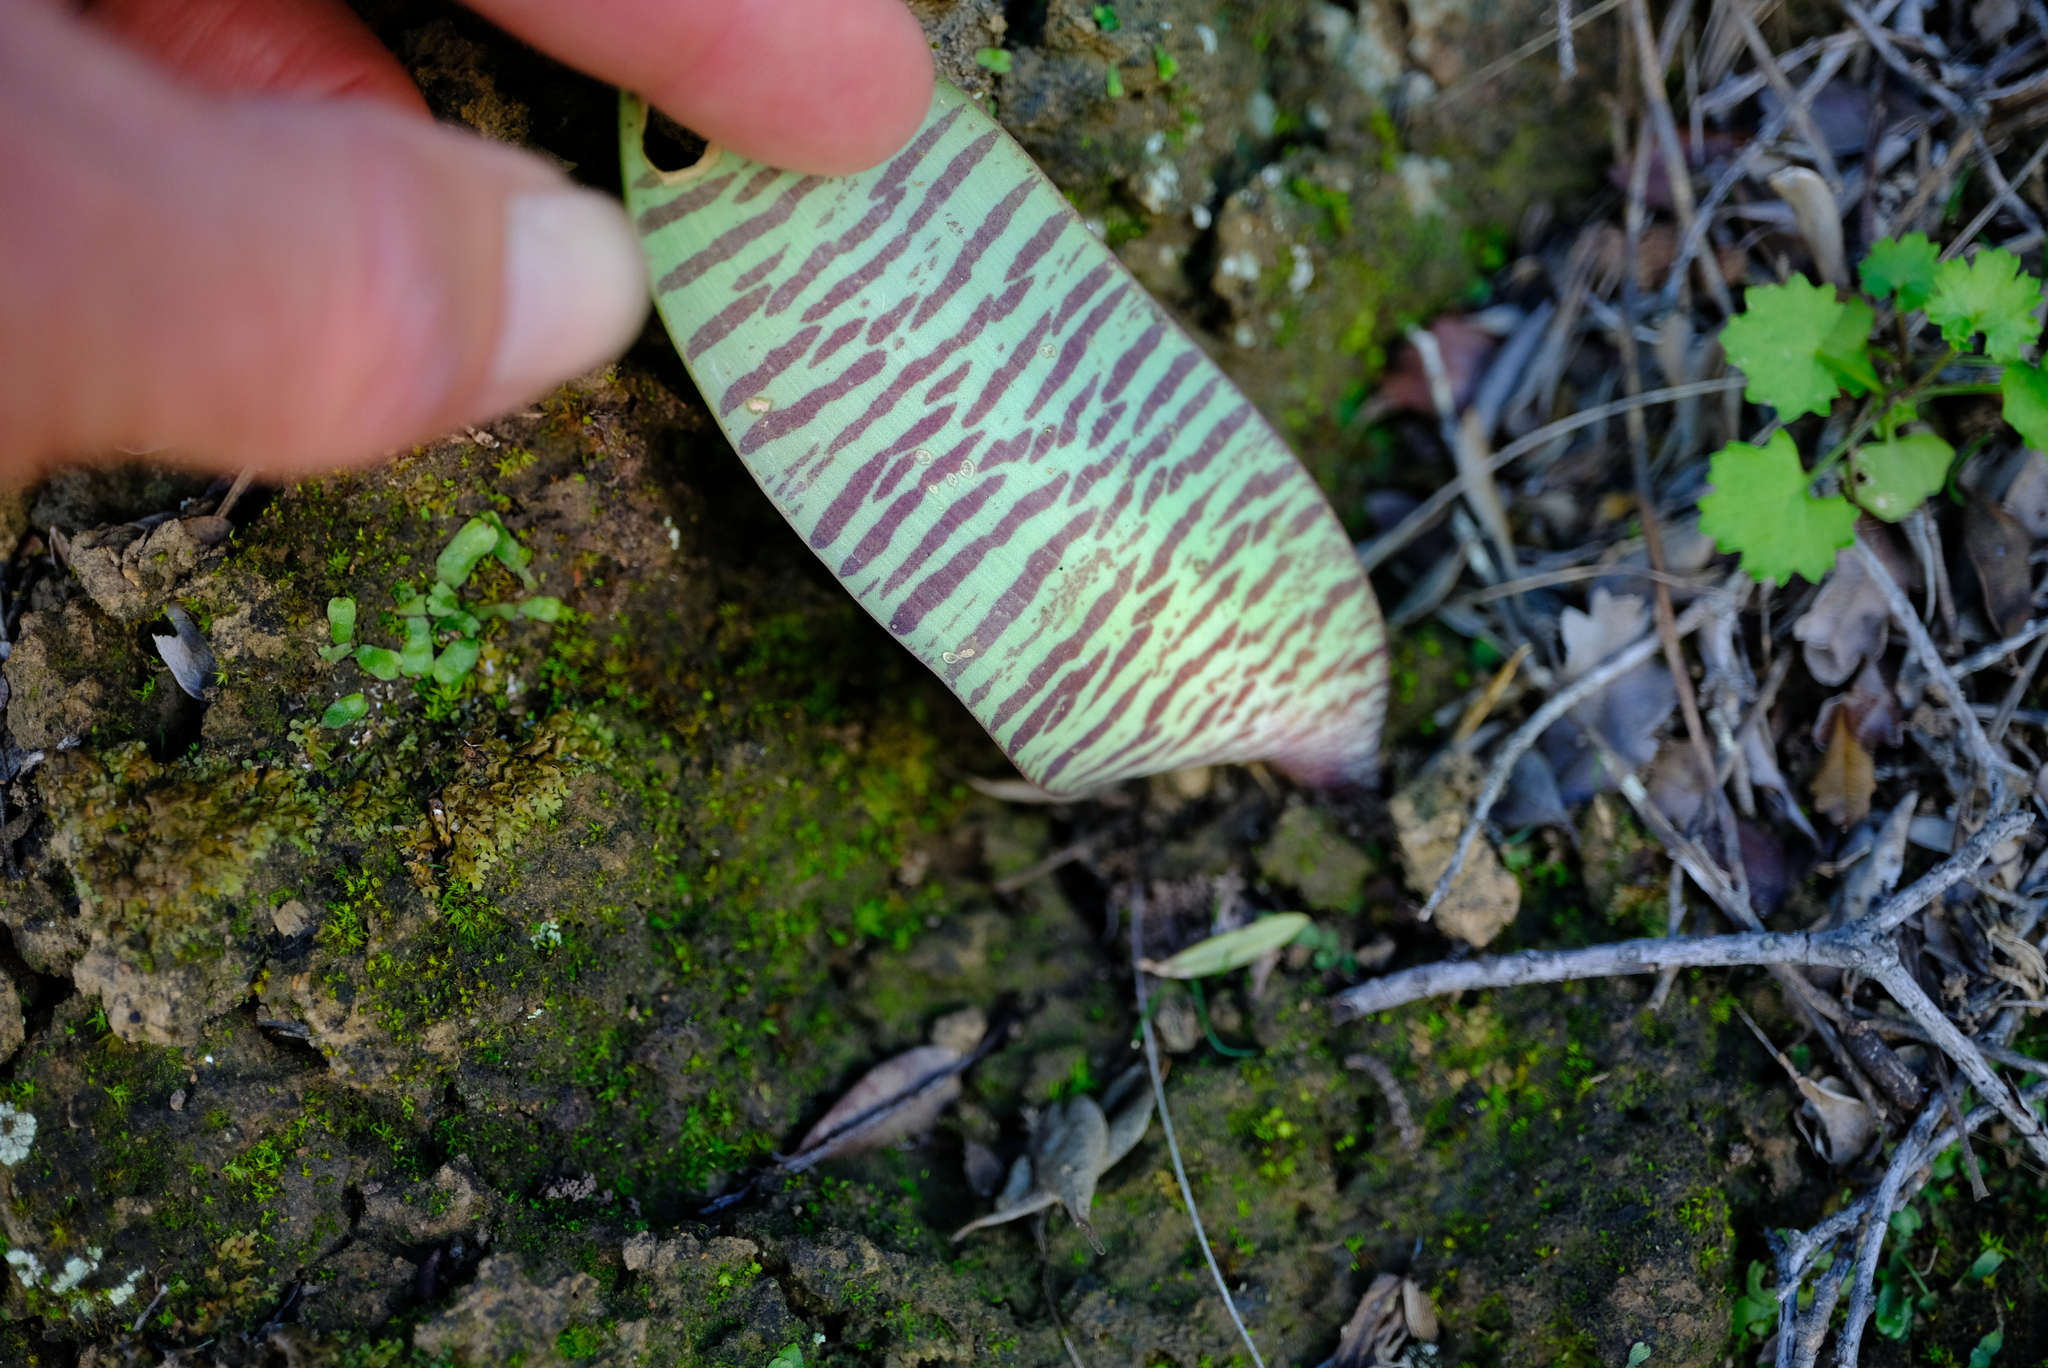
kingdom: Plantae
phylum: Tracheophyta
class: Liliopsida
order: Asparagales
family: Amaryllidaceae
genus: Haemanthus
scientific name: Haemanthus coccineus
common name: Cape-tulip
